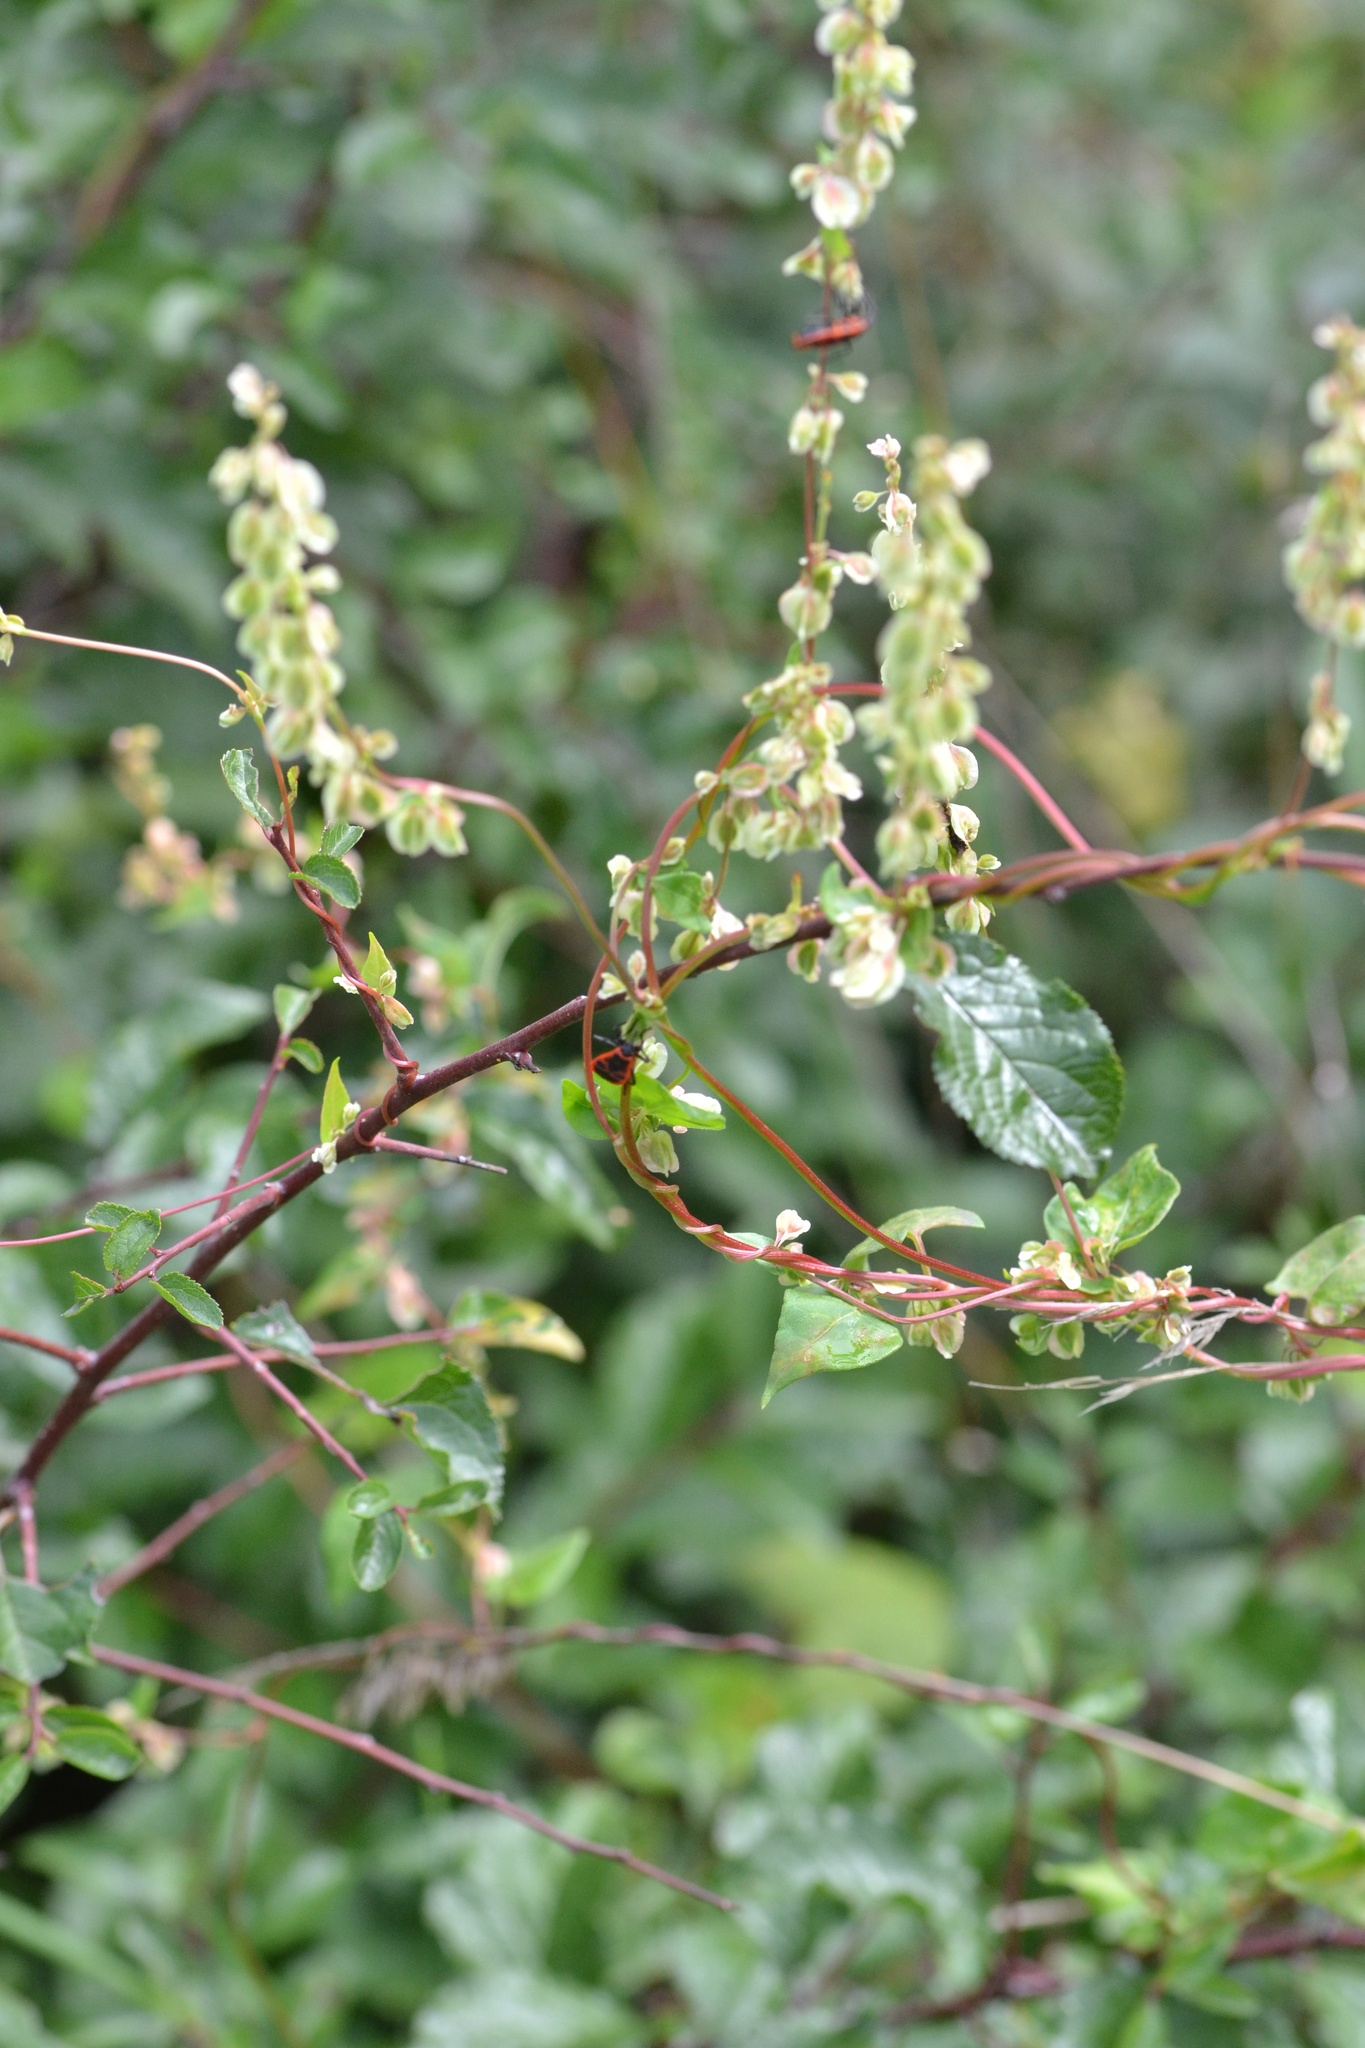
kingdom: Plantae
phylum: Tracheophyta
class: Magnoliopsida
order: Caryophyllales
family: Polygonaceae
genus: Fallopia
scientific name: Fallopia dumetorum
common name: Copse-bindweed
